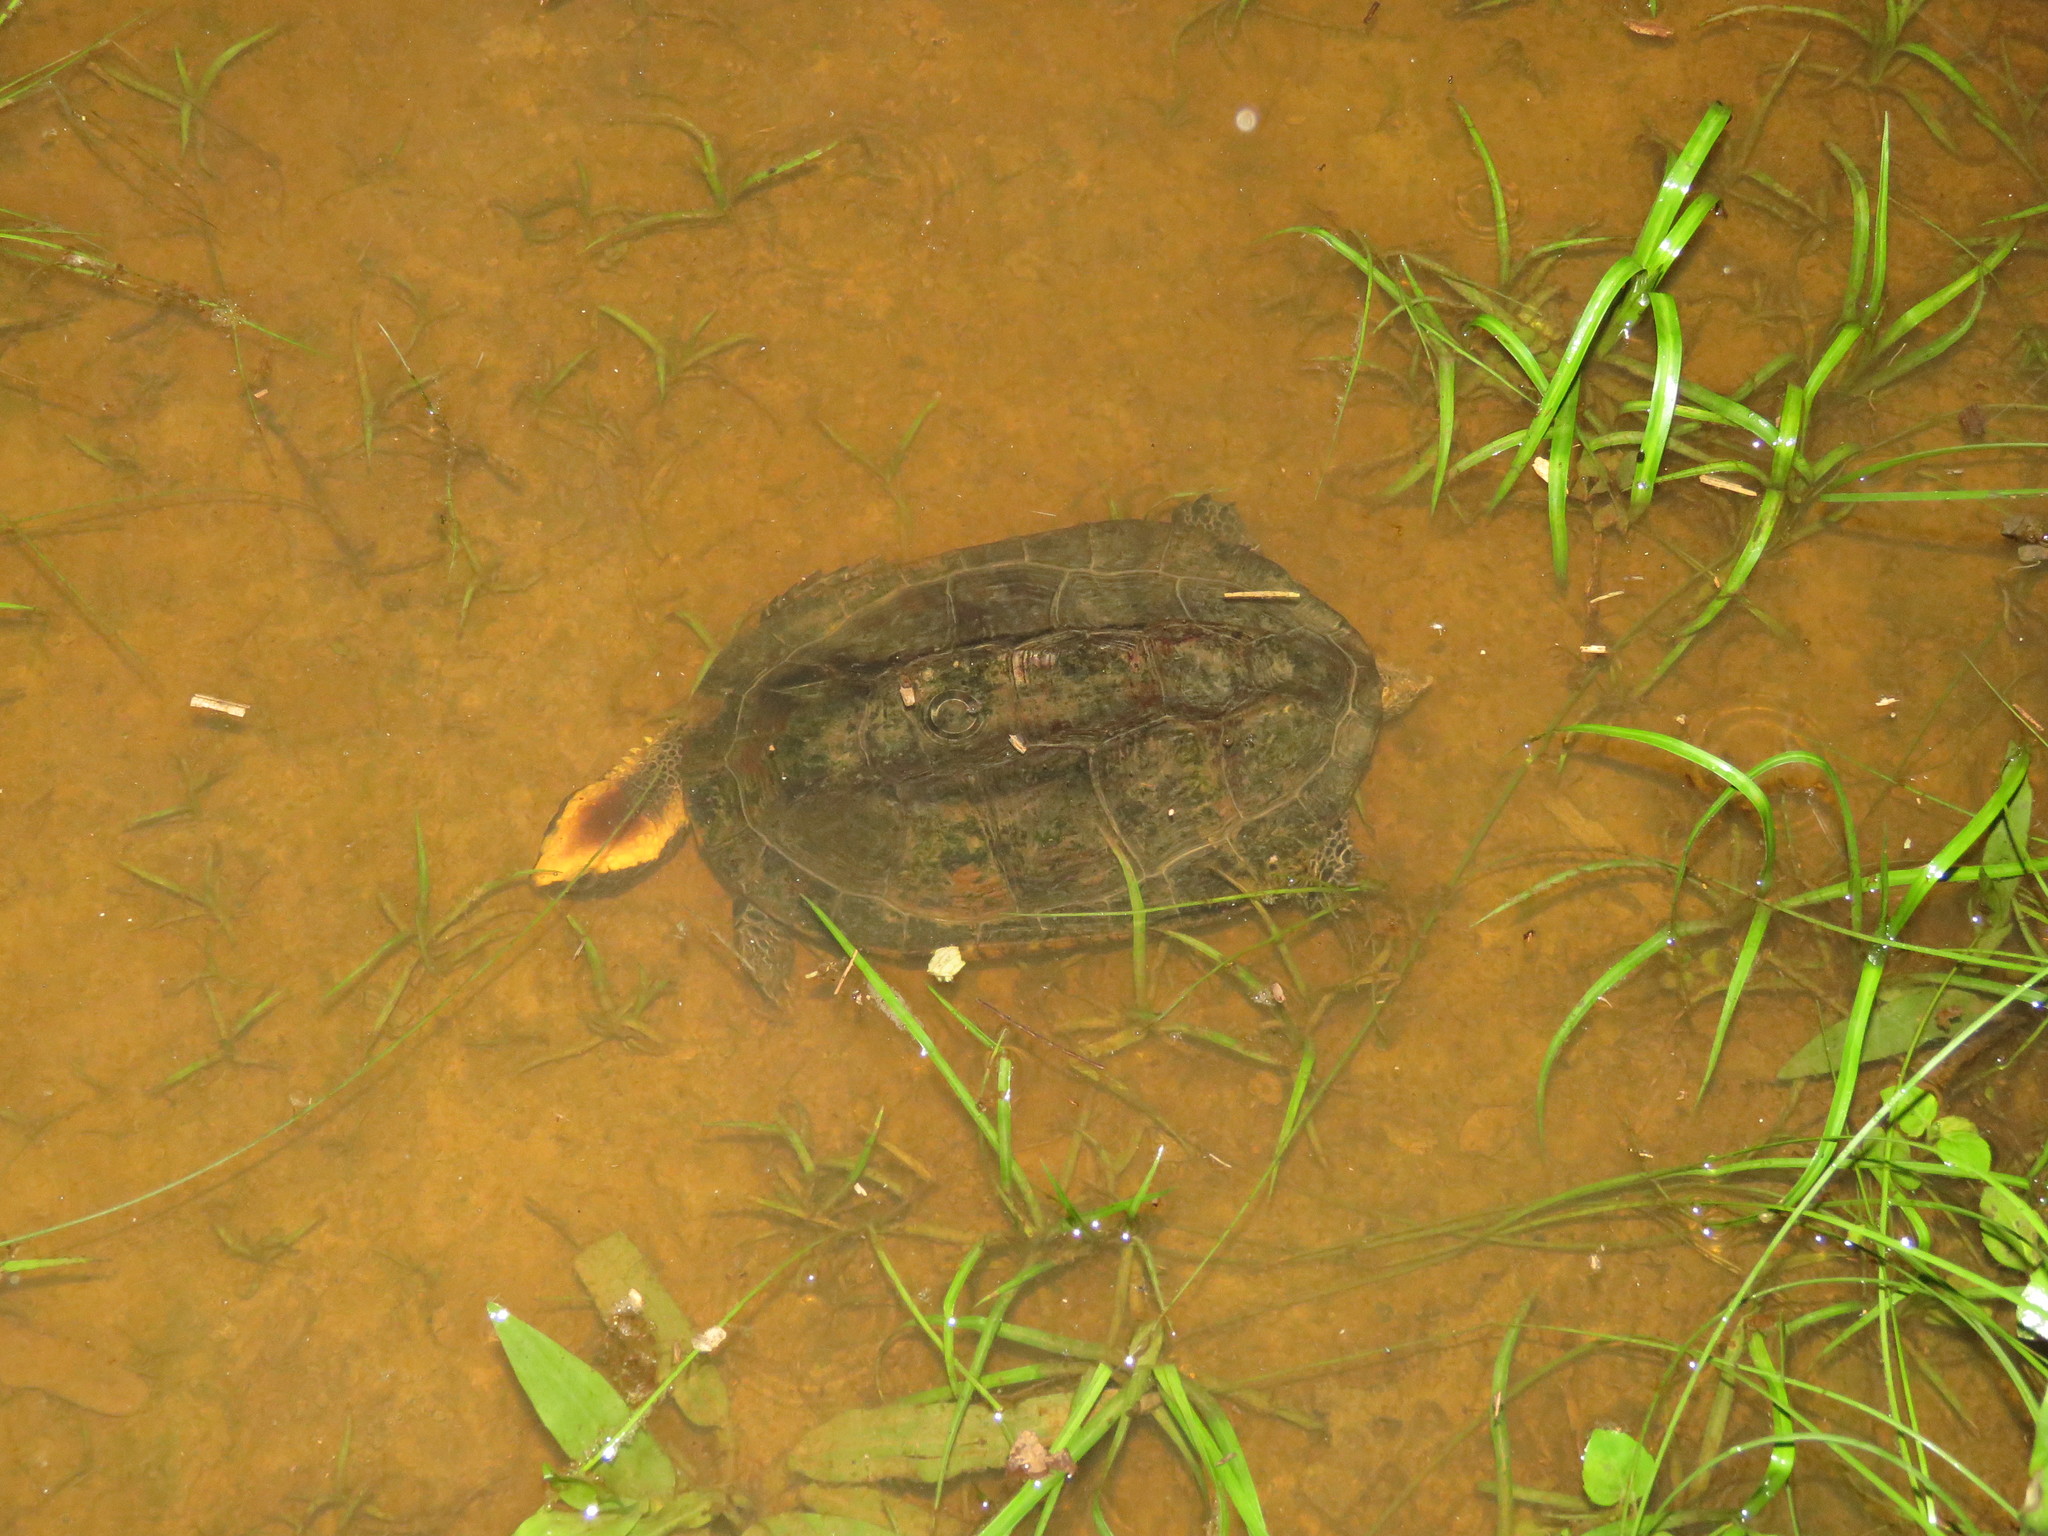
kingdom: Animalia
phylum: Chordata
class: Testudines
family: Chelidae
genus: Platemys
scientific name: Platemys platycephala
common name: Twistneck turtle
